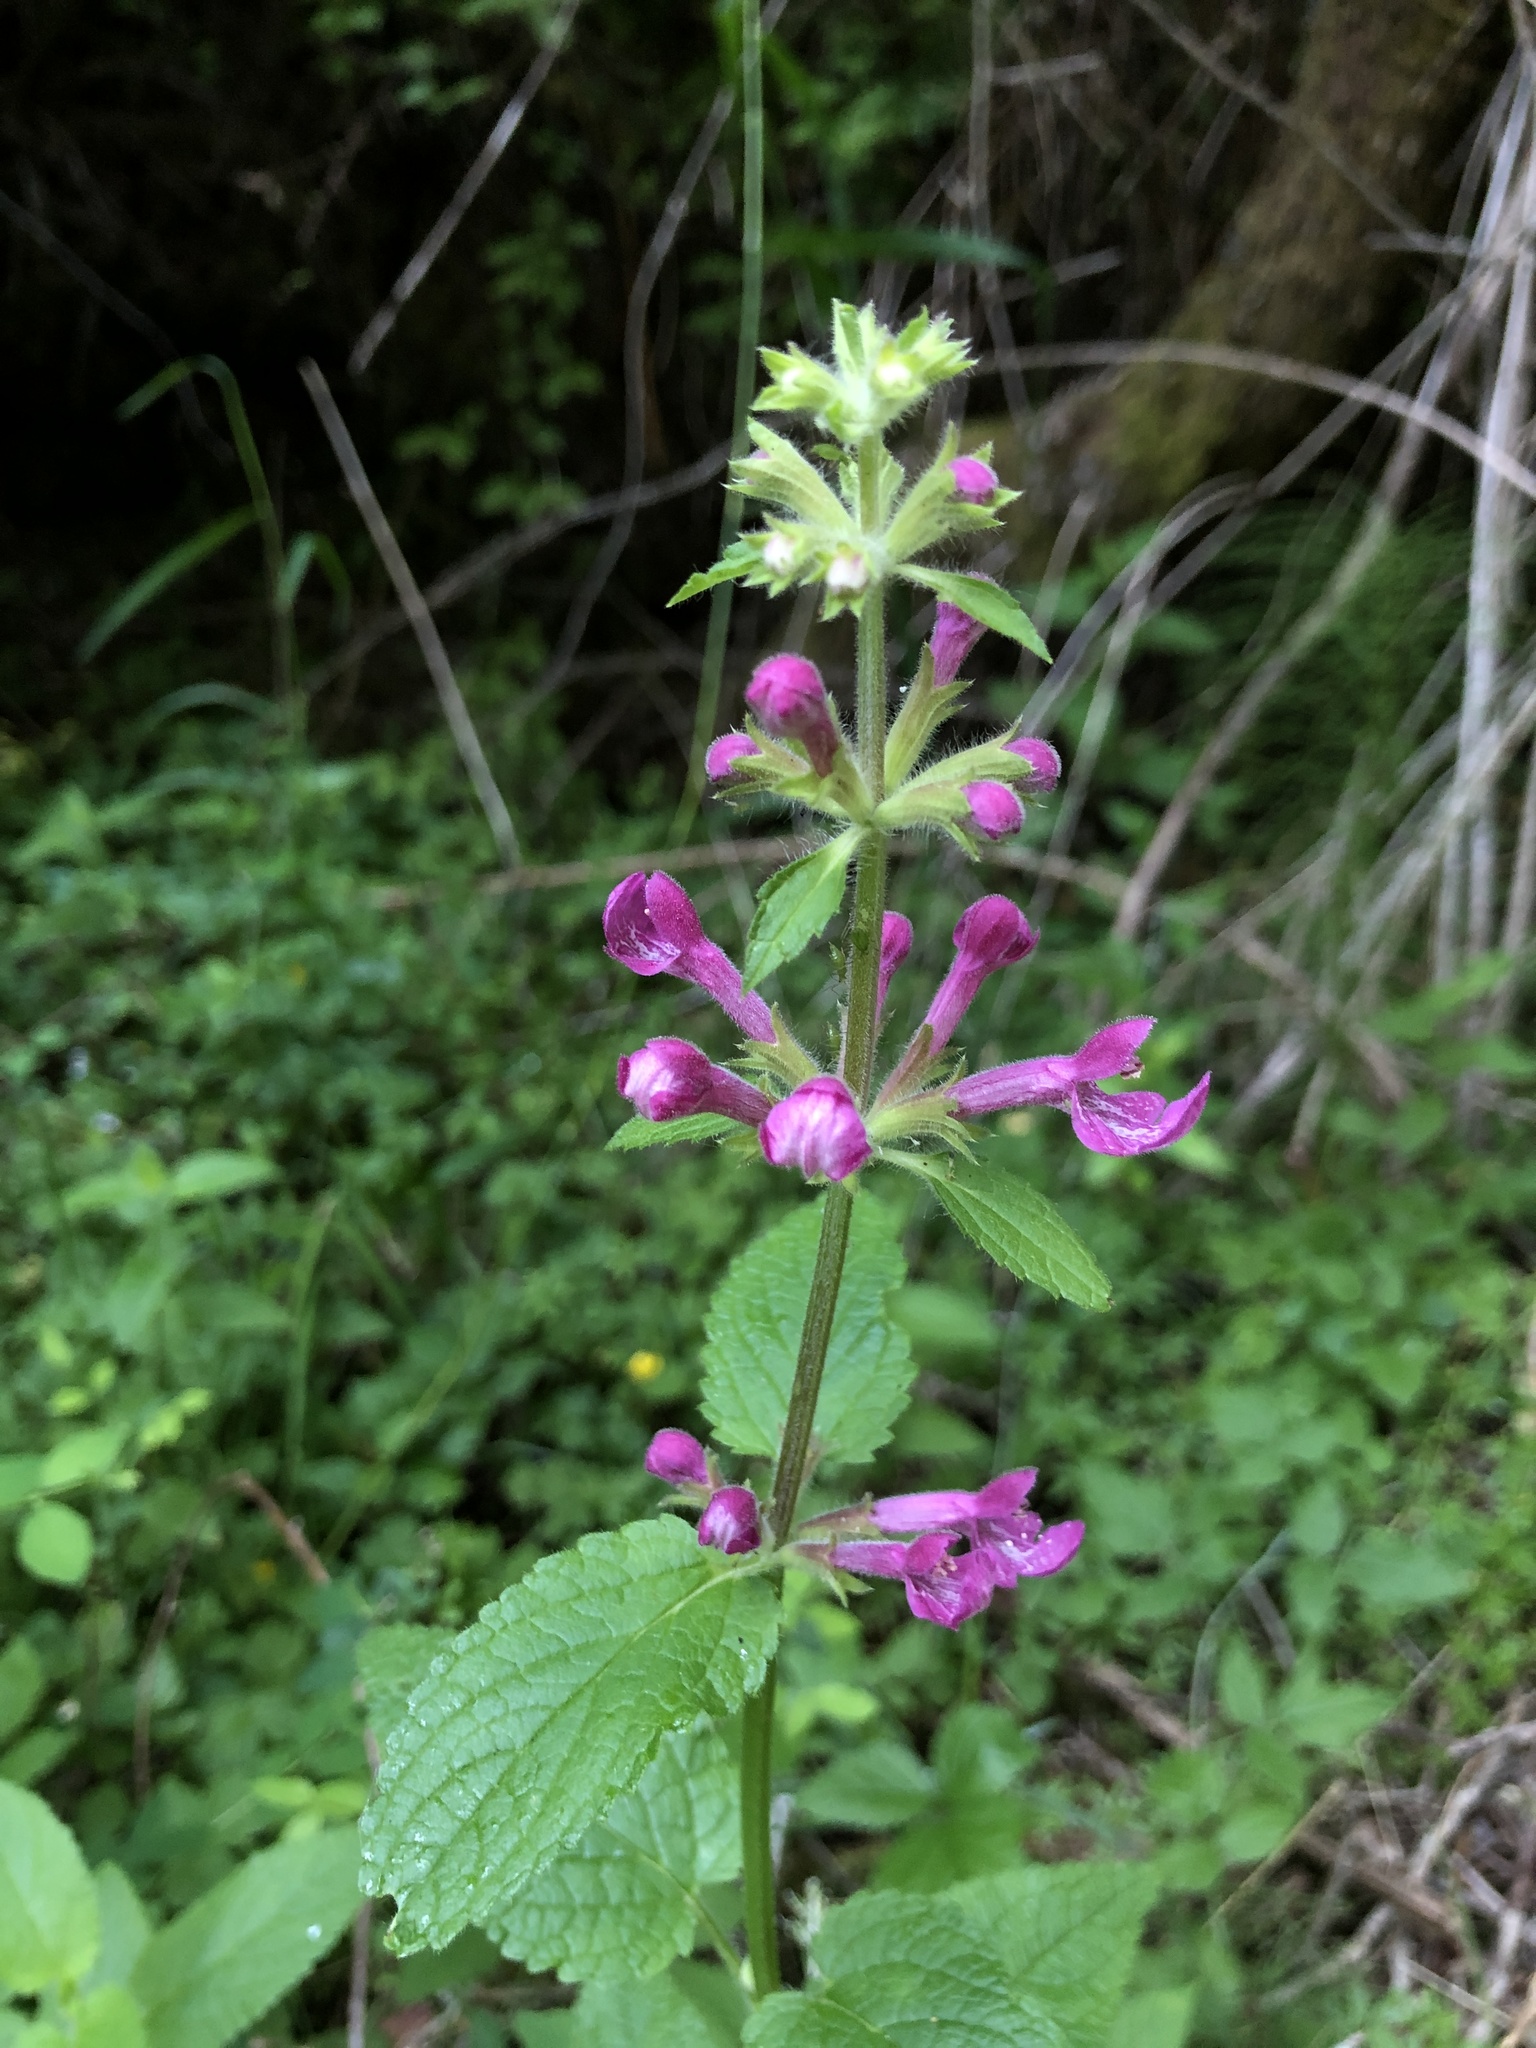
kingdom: Plantae
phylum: Tracheophyta
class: Magnoliopsida
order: Lamiales
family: Lamiaceae
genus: Stachys
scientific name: Stachys chamissonis
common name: Coastal hedge-nettle
